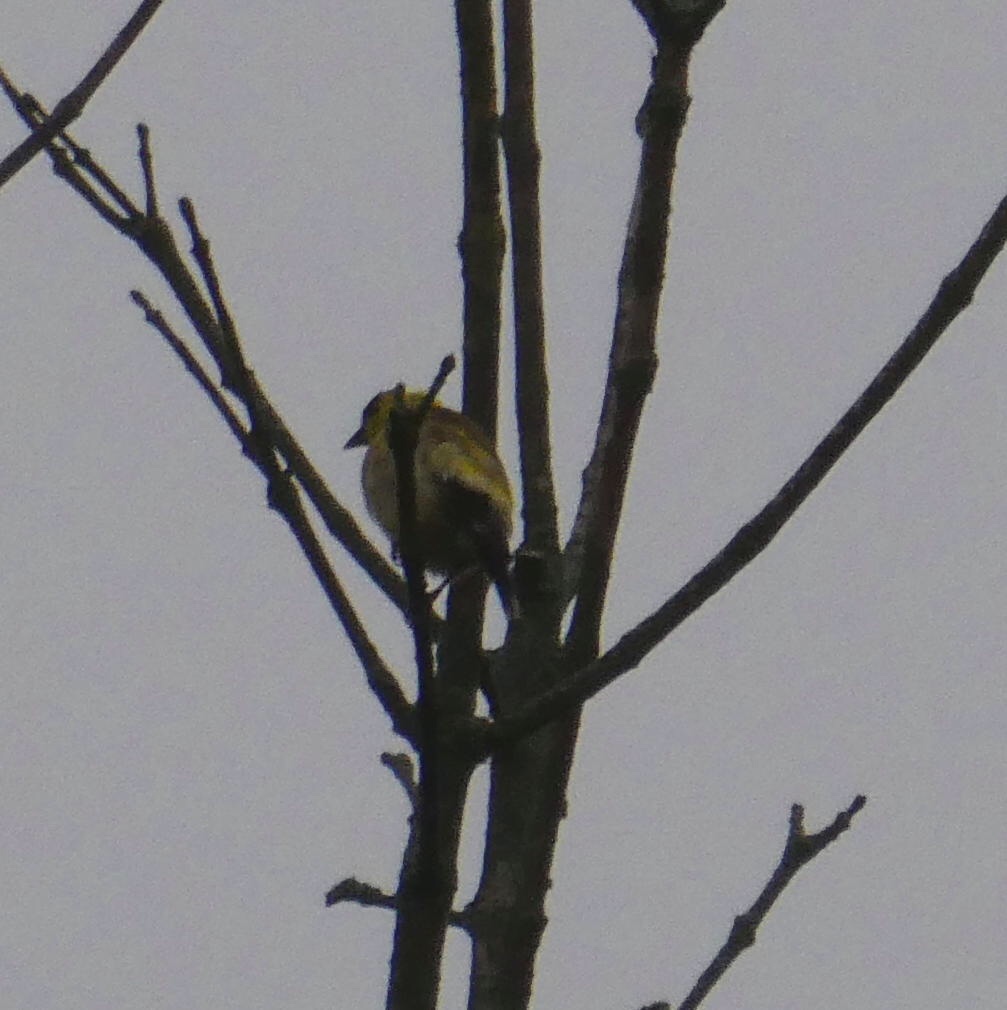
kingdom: Animalia
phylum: Chordata
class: Aves
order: Passeriformes
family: Fringillidae
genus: Spinus
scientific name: Spinus tristis
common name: American goldfinch
